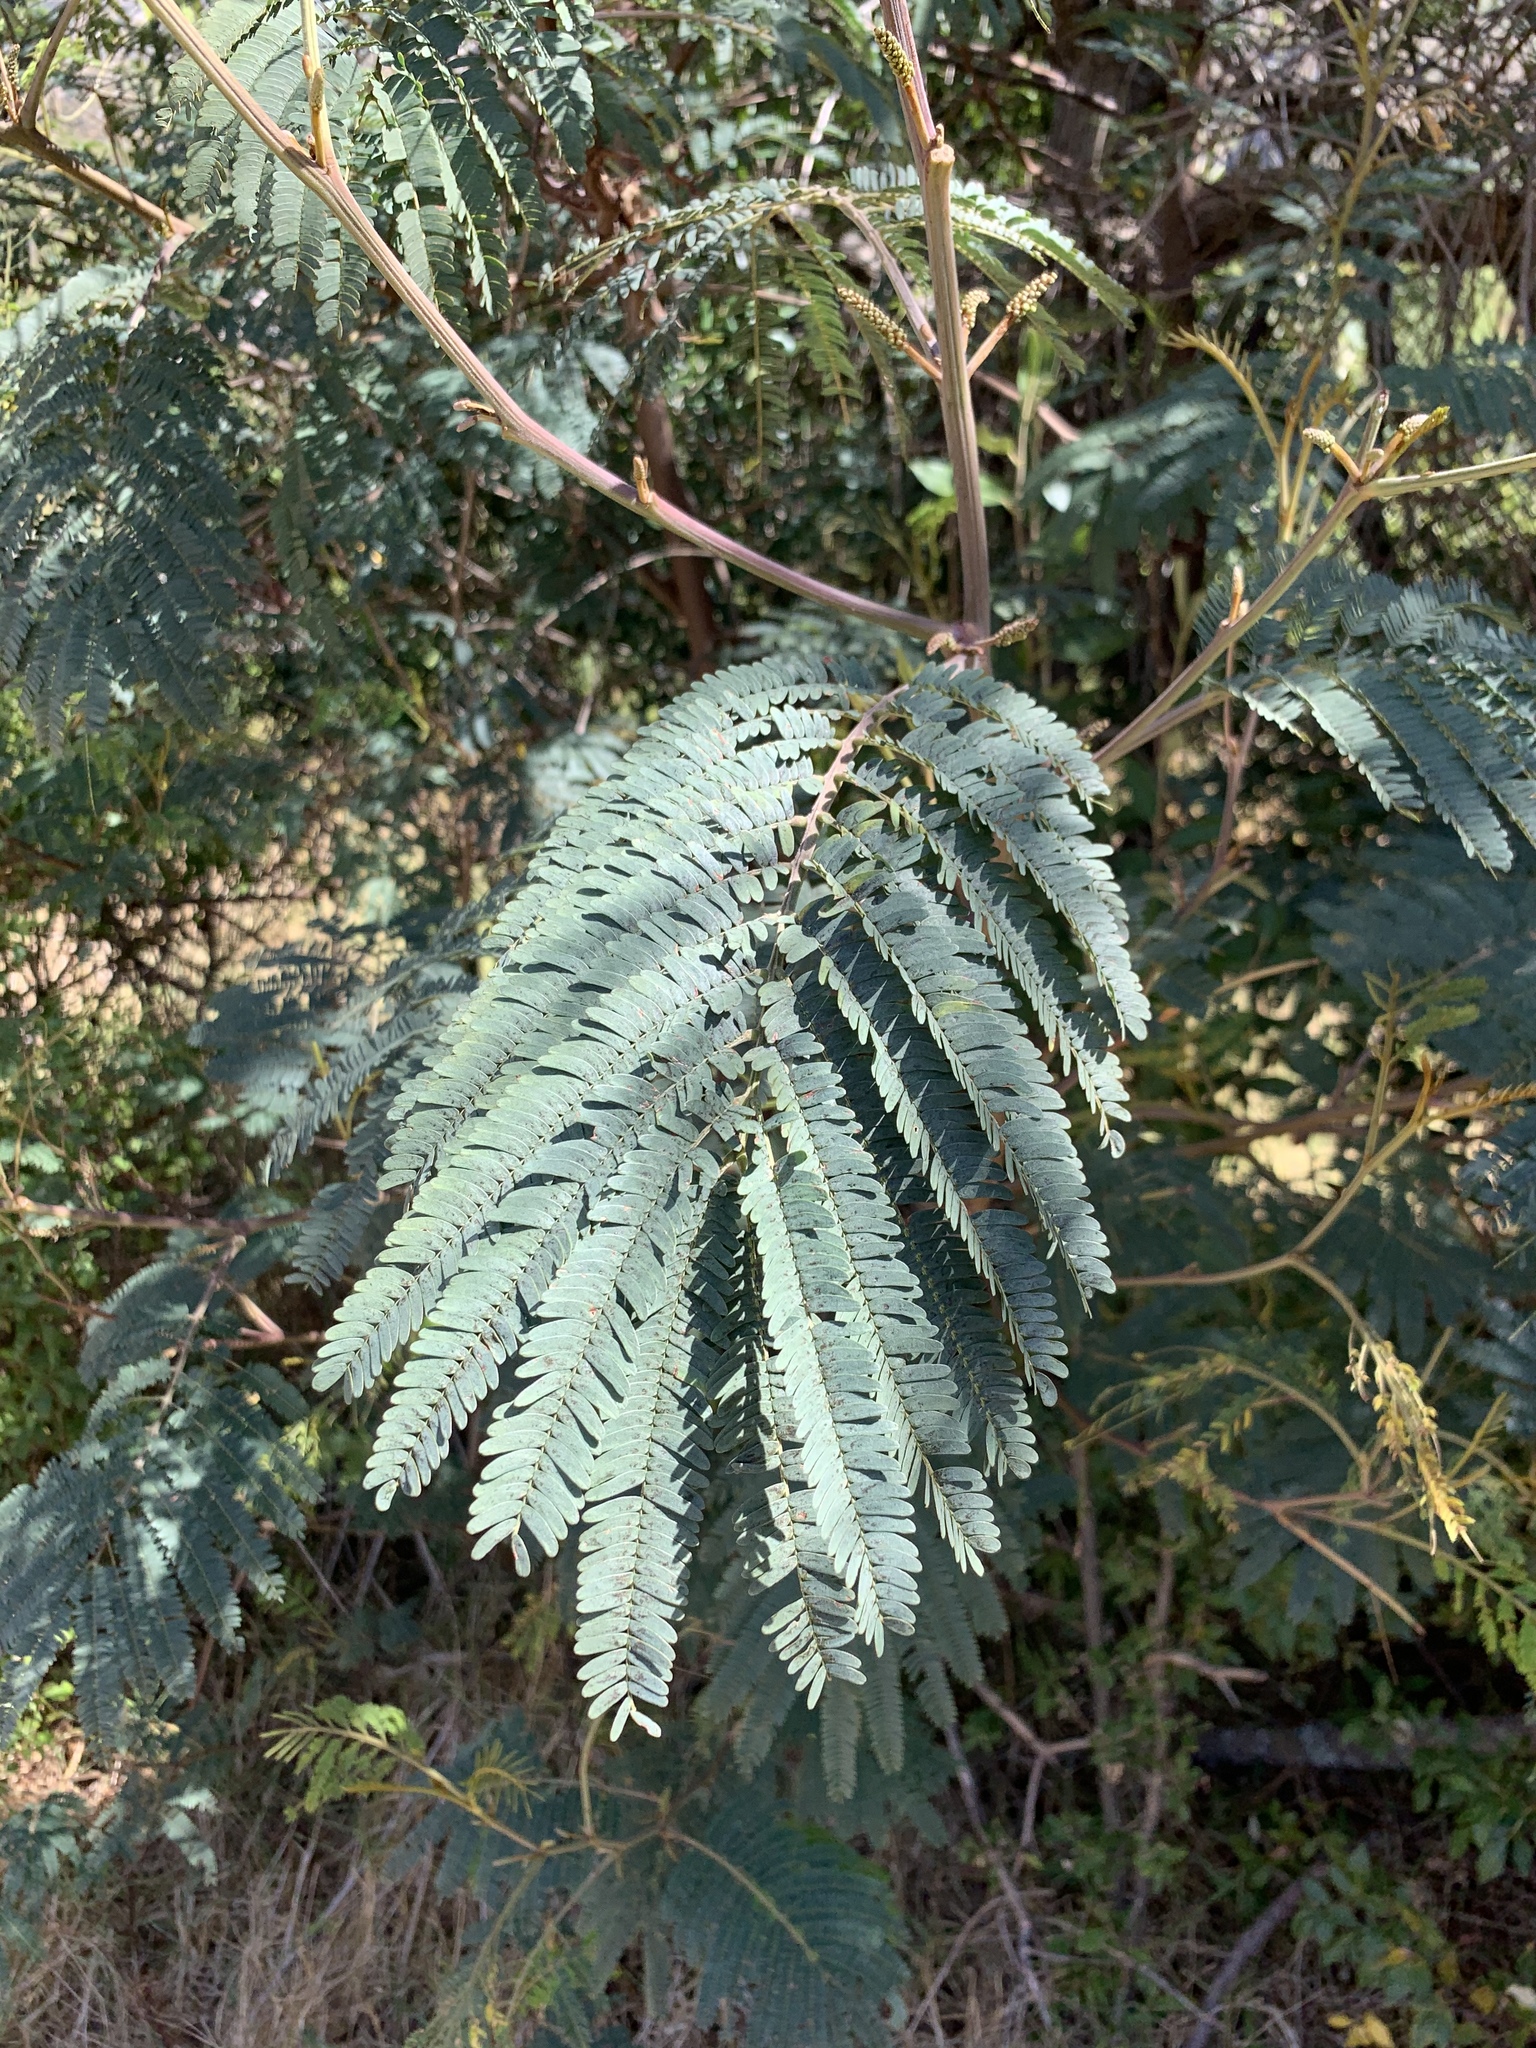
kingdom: Plantae
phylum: Tracheophyta
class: Magnoliopsida
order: Fabales
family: Fabaceae
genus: Paraserianthes
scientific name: Paraserianthes lophantha
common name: Plume albizia
